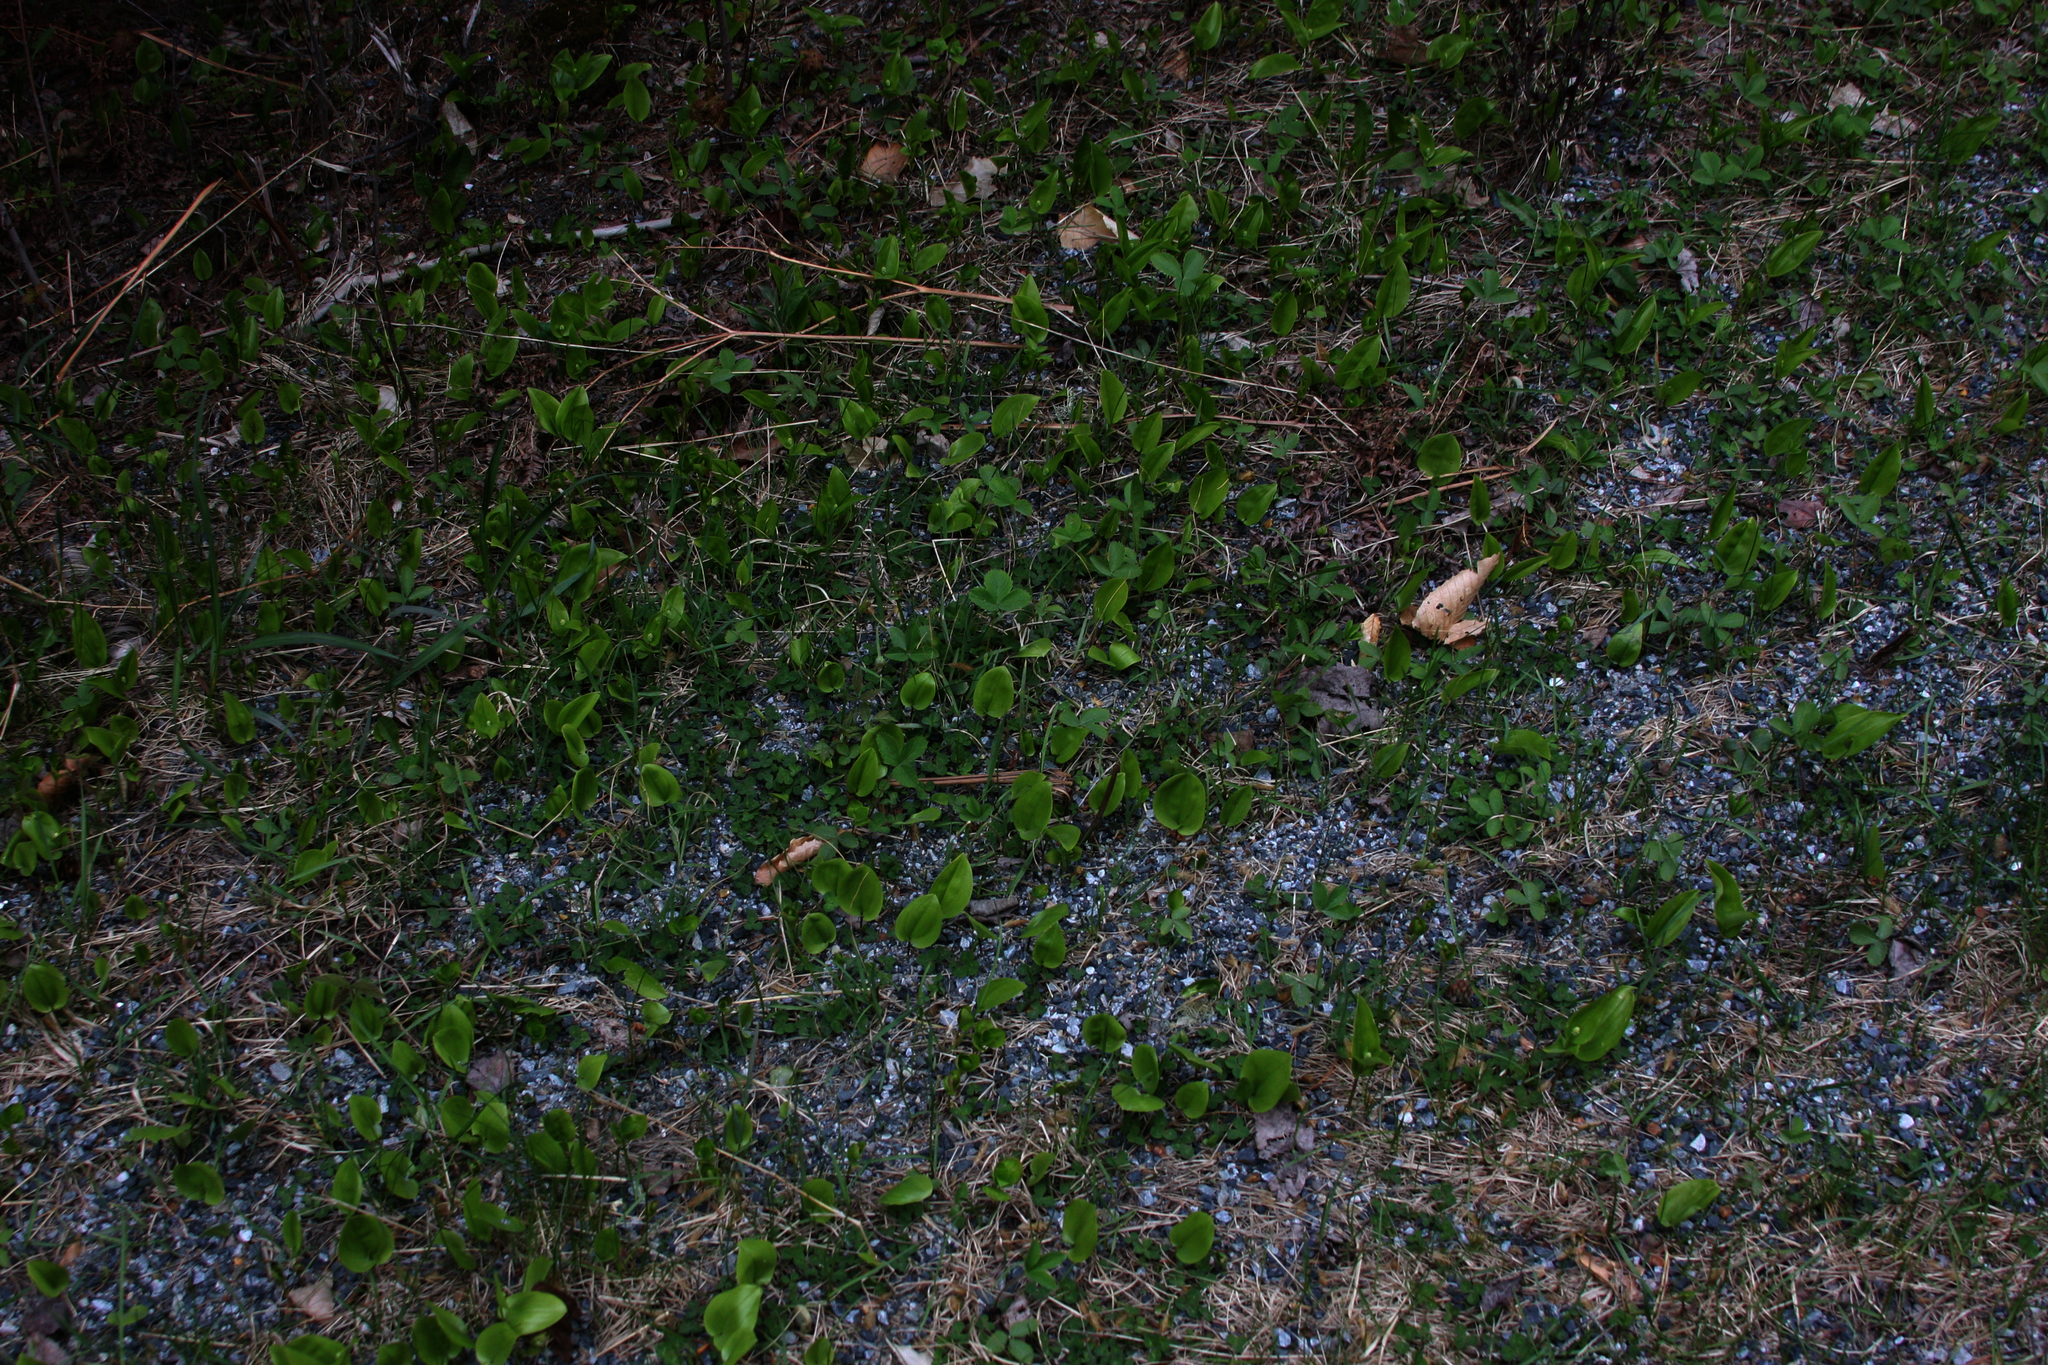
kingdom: Plantae
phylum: Tracheophyta
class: Liliopsida
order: Asparagales
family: Asparagaceae
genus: Maianthemum
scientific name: Maianthemum canadense
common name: False lily-of-the-valley
